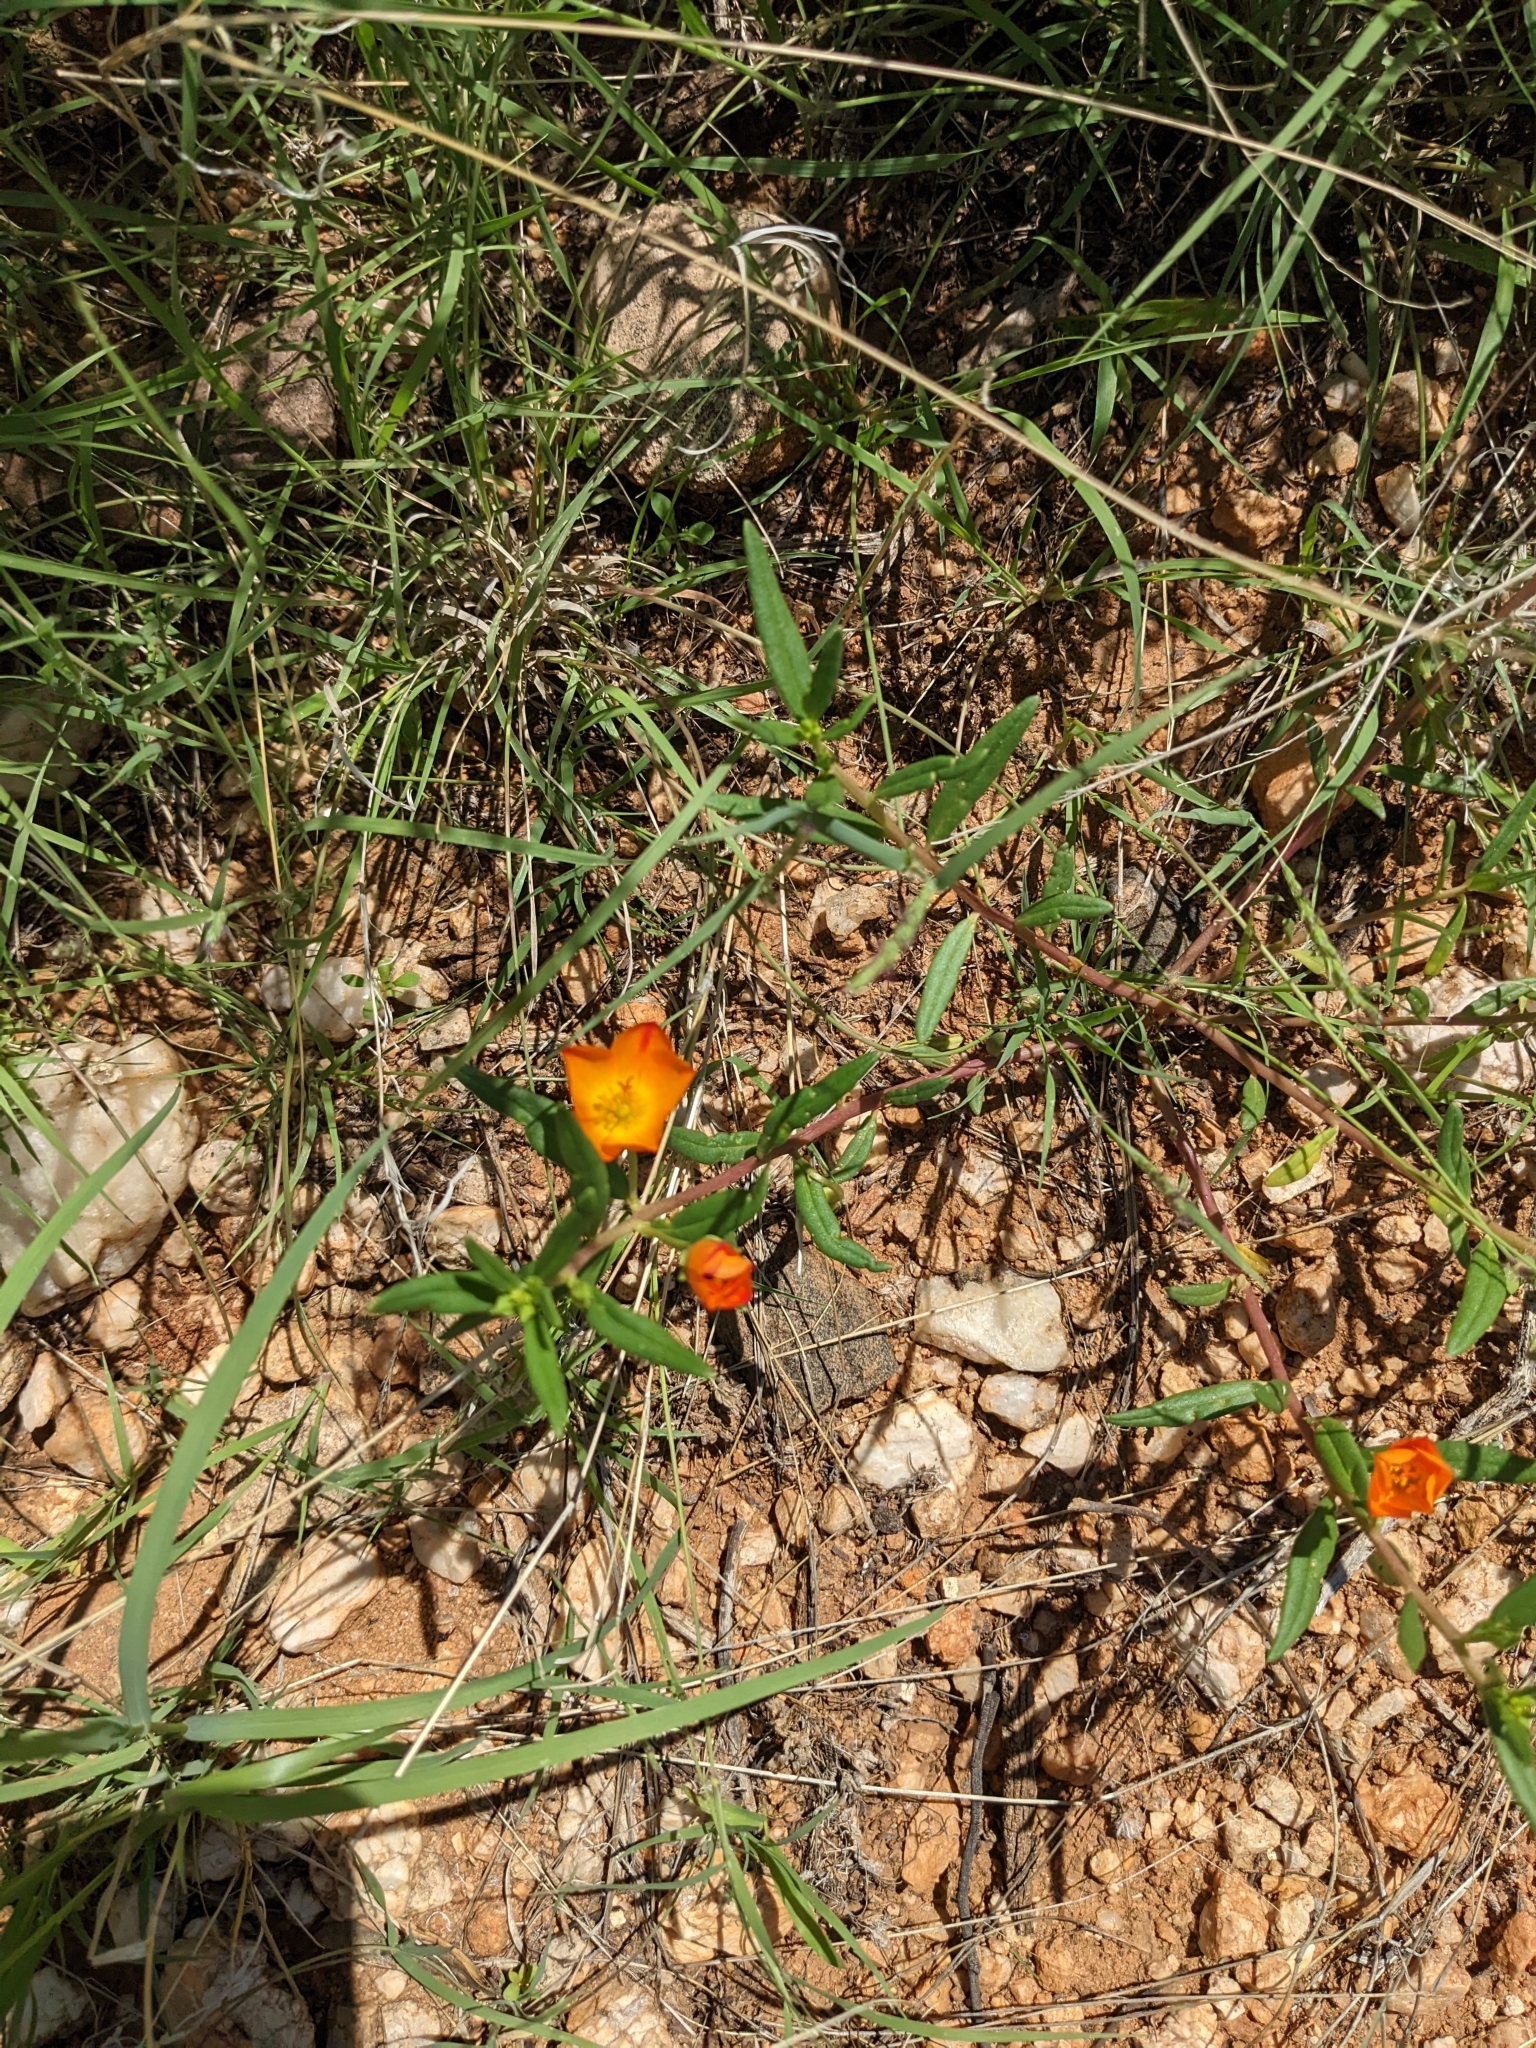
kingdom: Plantae
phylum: Tracheophyta
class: Magnoliopsida
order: Caryophyllales
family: Montiaceae
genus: Phemeranthus
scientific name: Phemeranthus aurantiacus
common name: Orange fameflower
